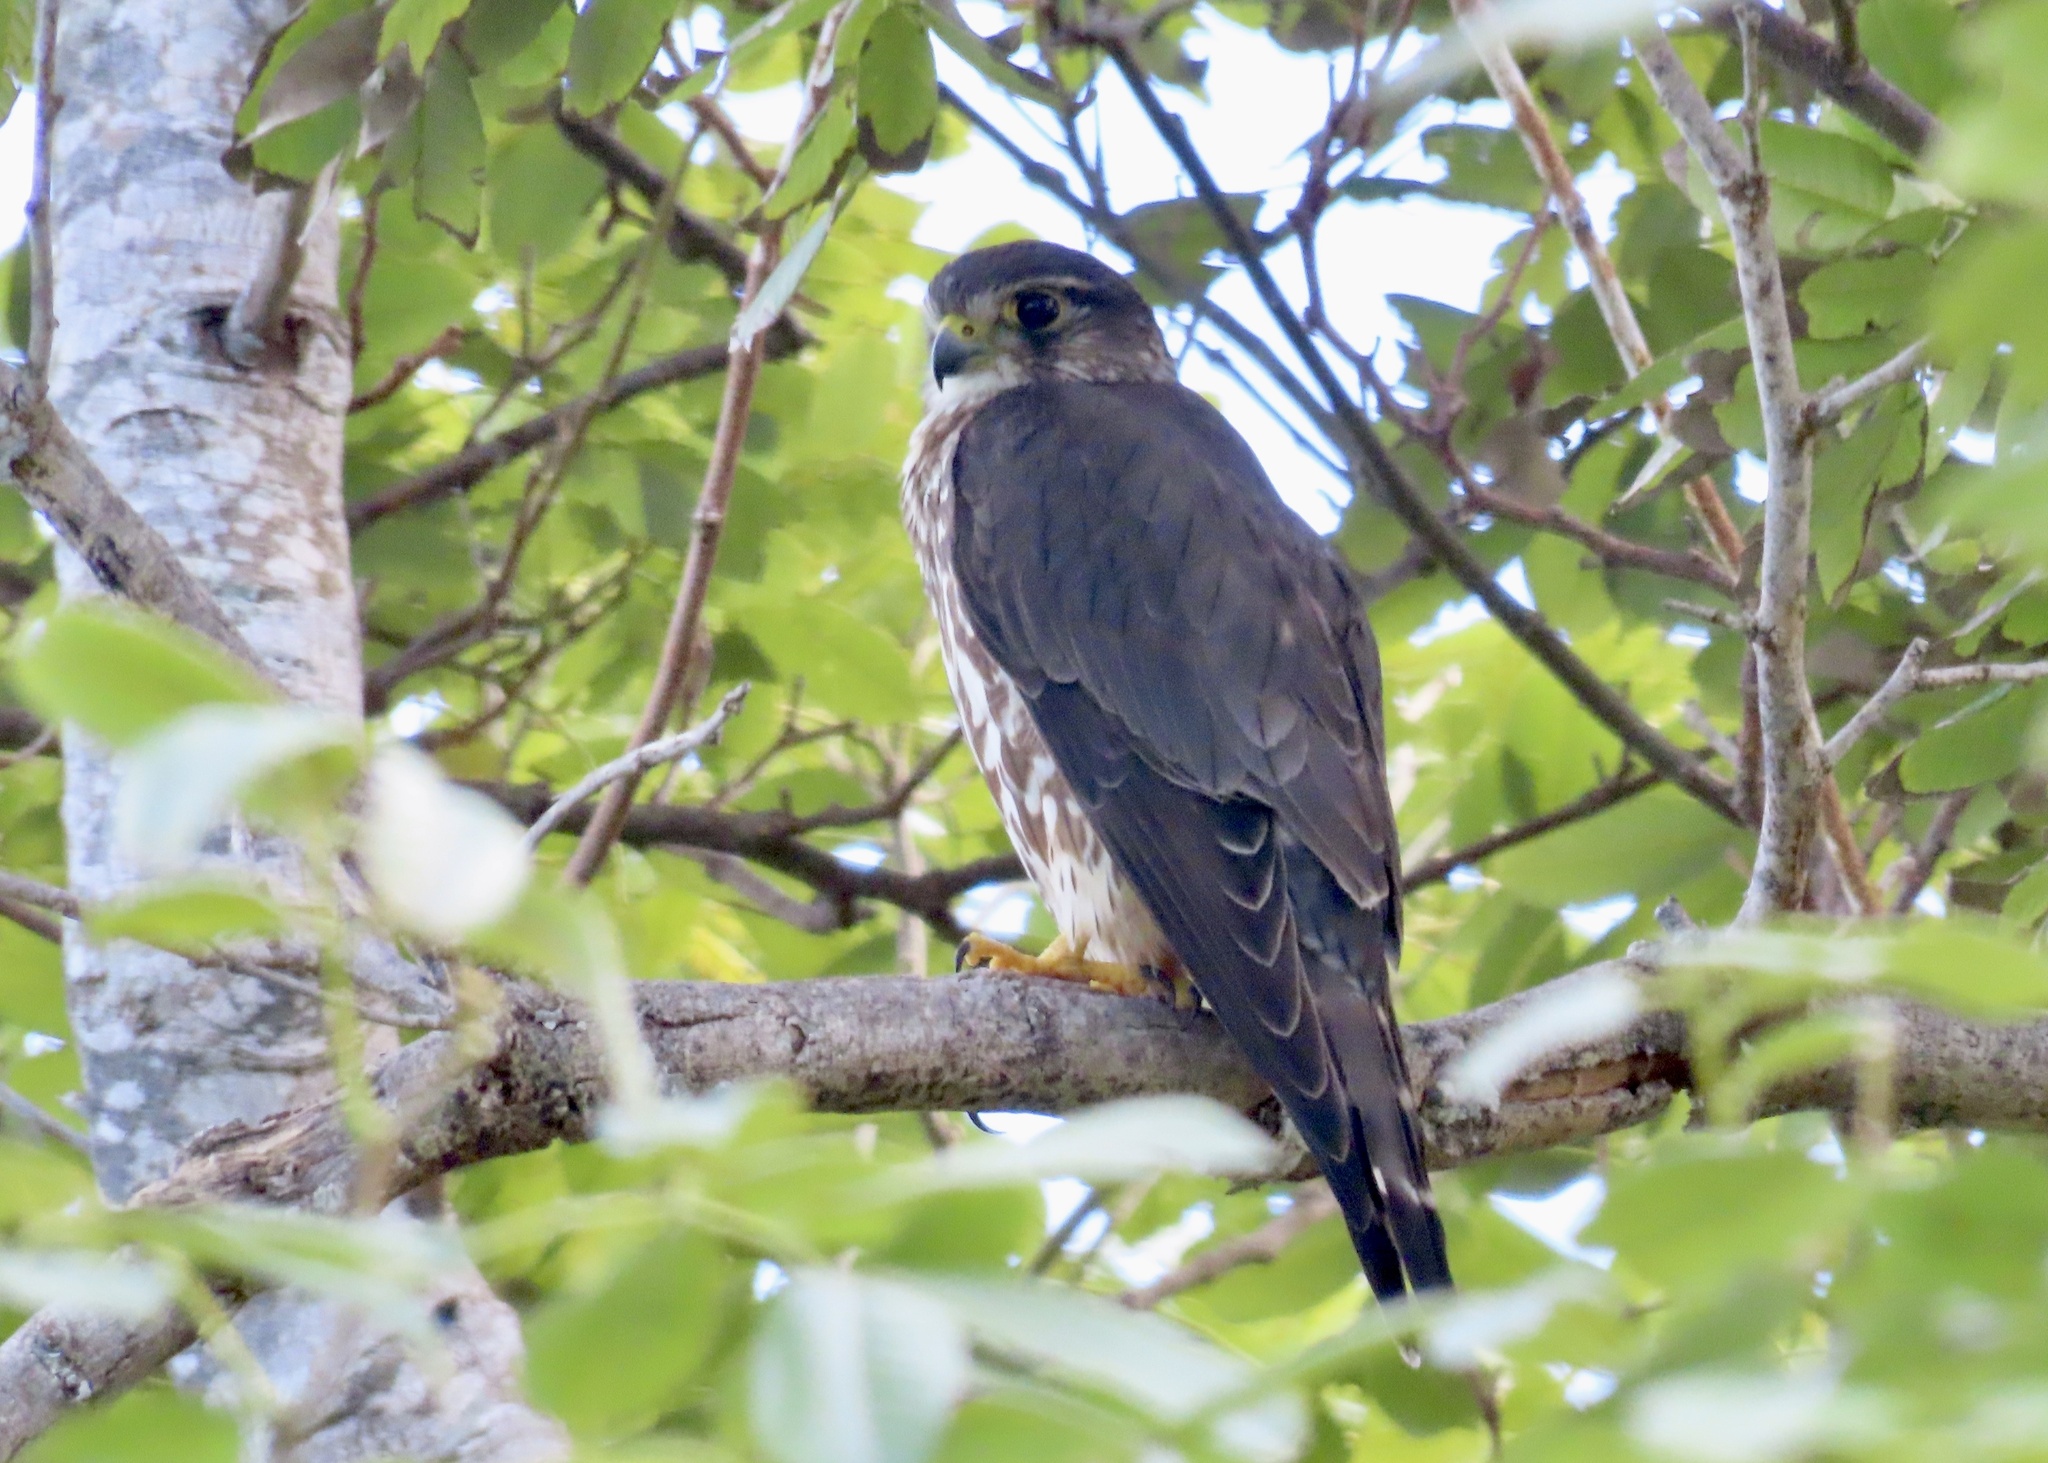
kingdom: Animalia
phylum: Chordata
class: Aves
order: Falconiformes
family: Falconidae
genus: Falco
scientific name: Falco columbarius
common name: Merlin
